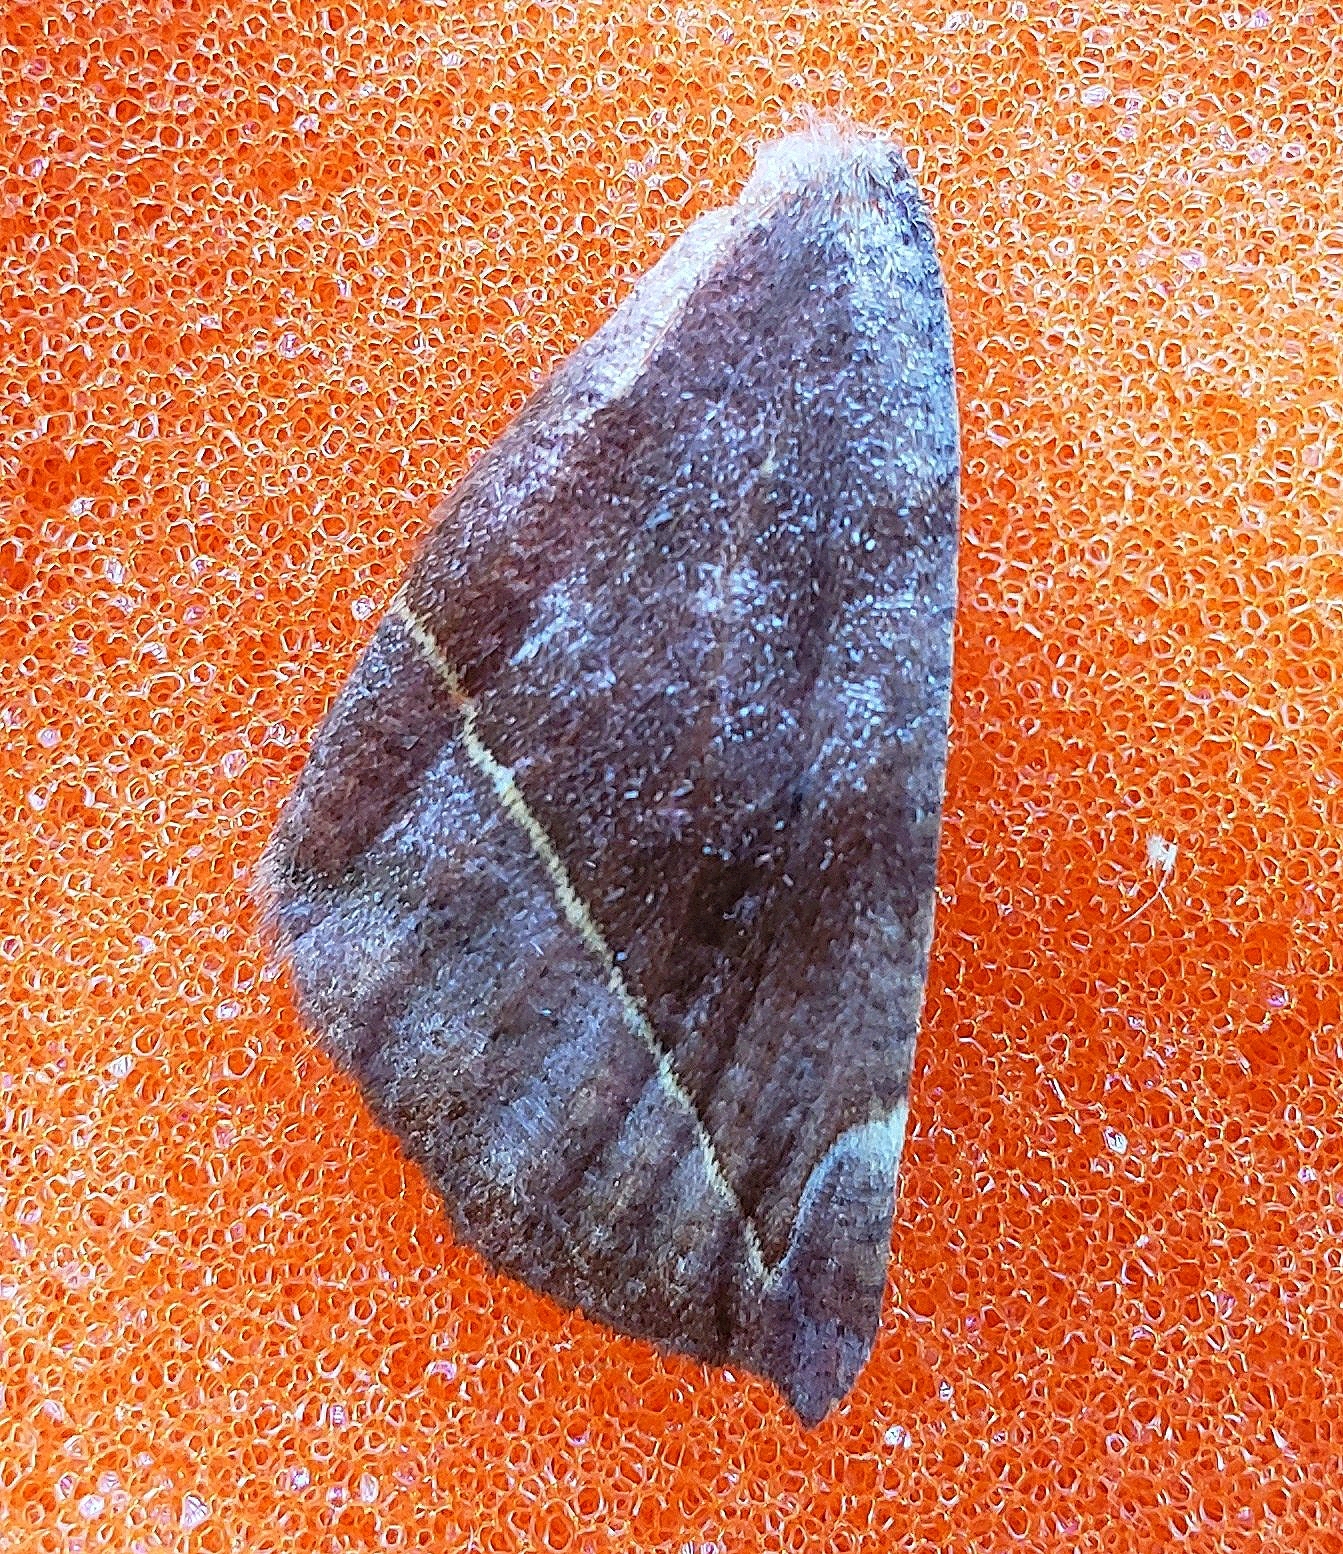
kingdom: Animalia
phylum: Arthropoda
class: Insecta
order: Lepidoptera
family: Geometridae
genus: Eutrapela
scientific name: Eutrapela clemataria
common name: Curved-toothed geometer
